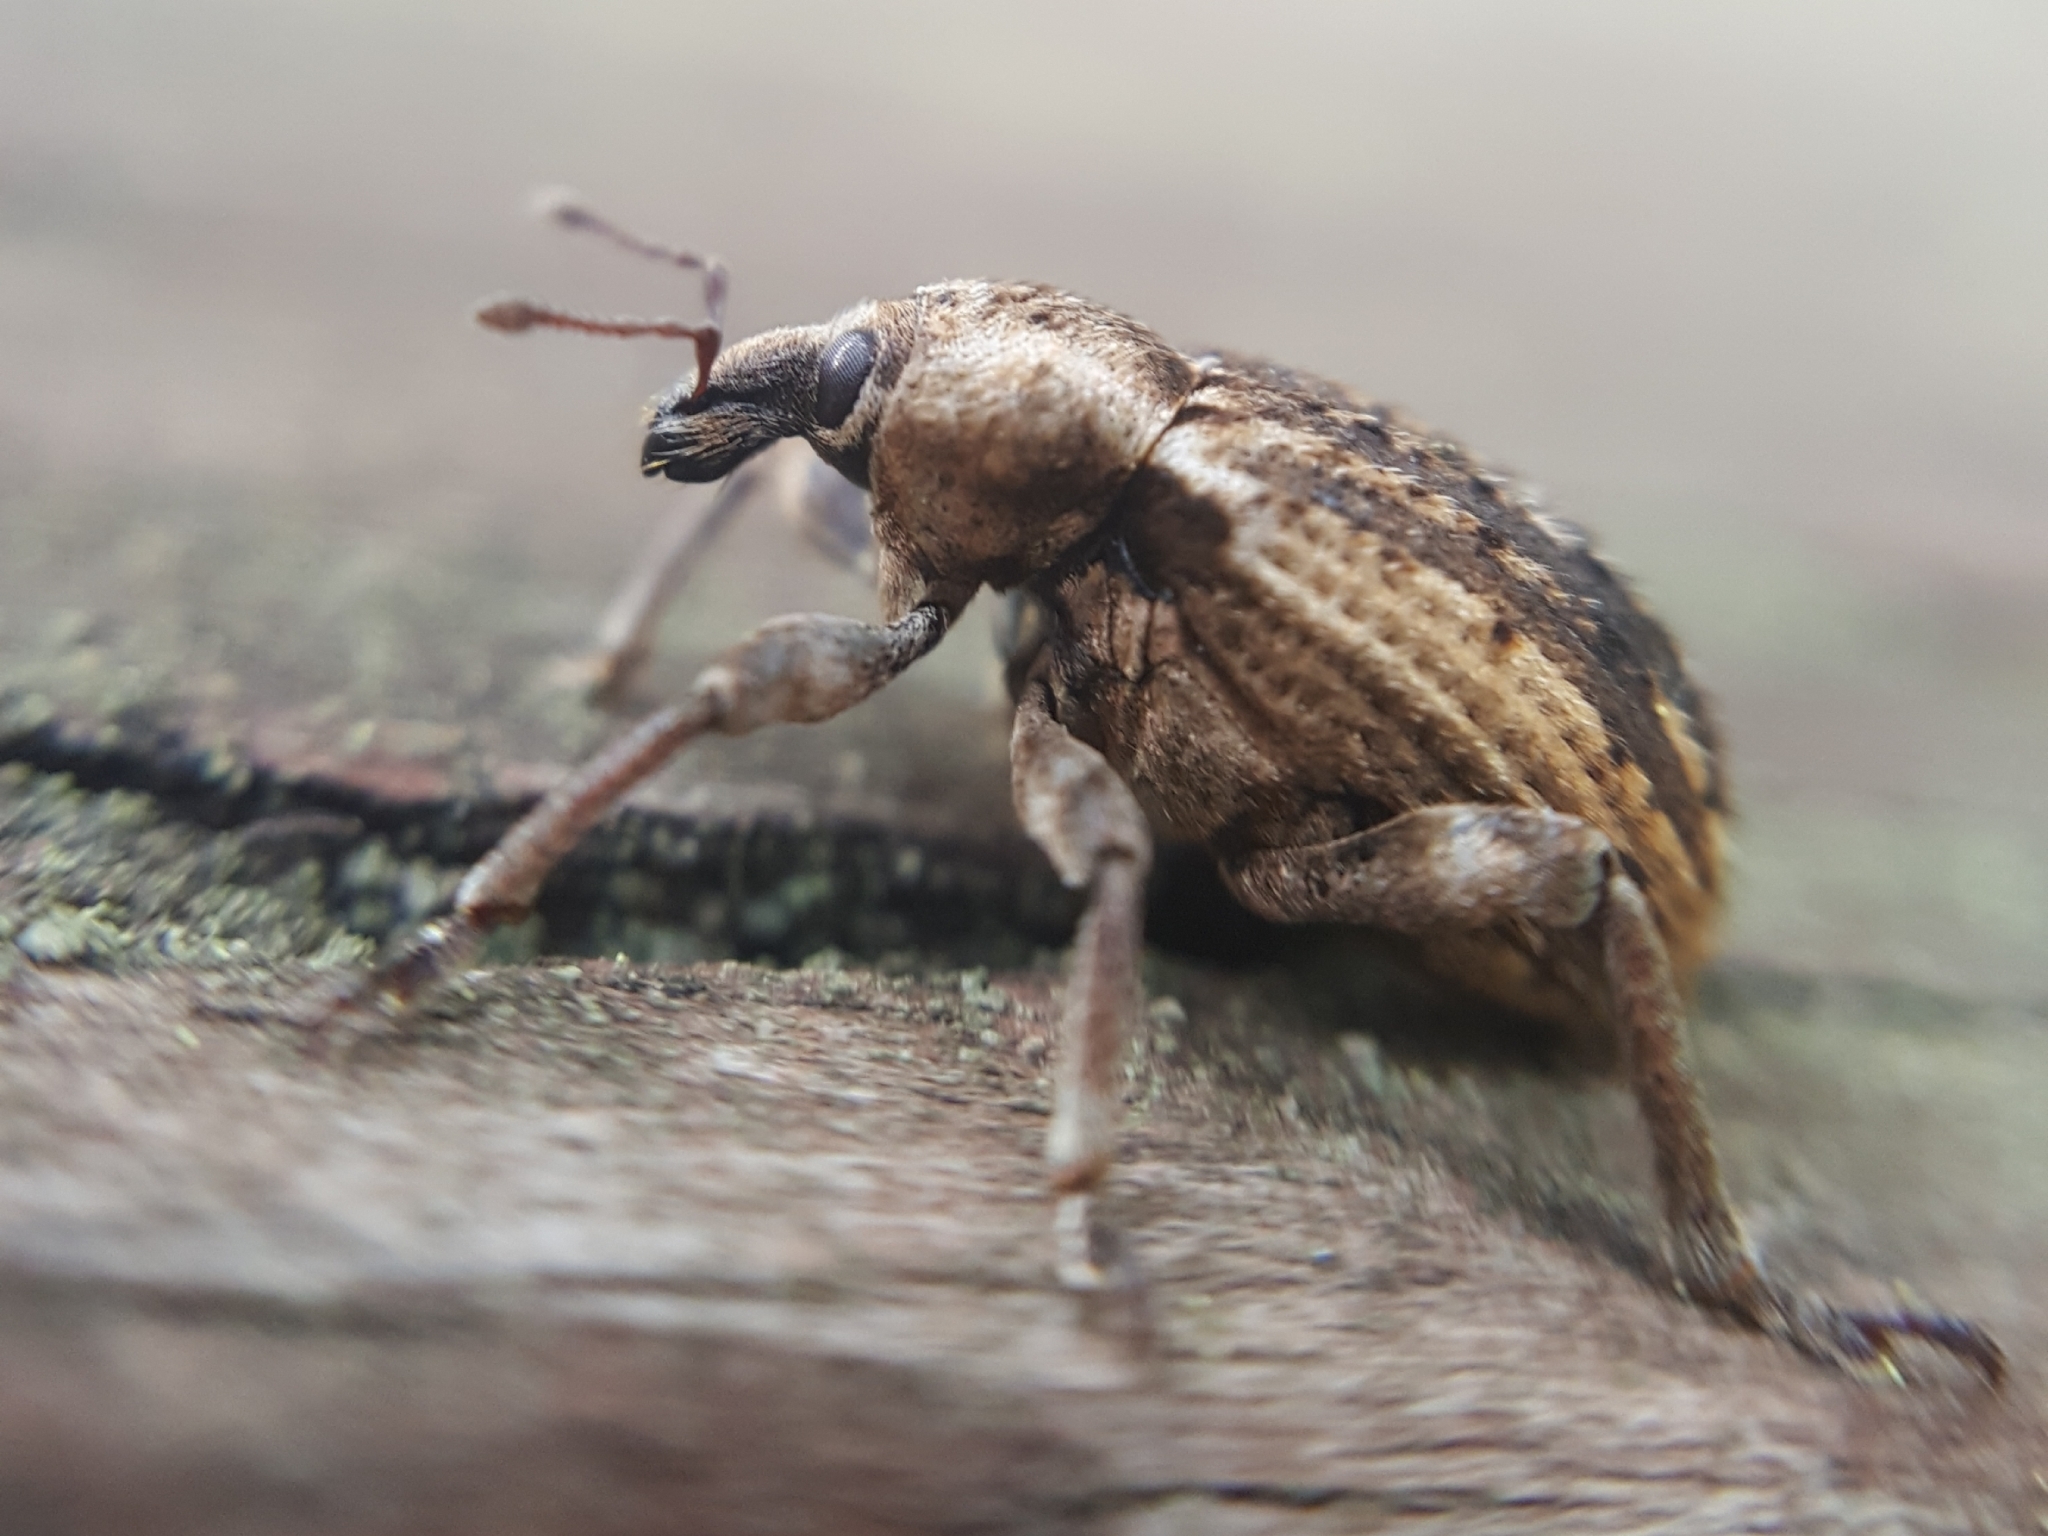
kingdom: Animalia
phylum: Arthropoda
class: Insecta
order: Coleoptera
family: Curculionidae
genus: Brachypera
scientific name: Brachypera zoilus
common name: Clover leaf weevil
